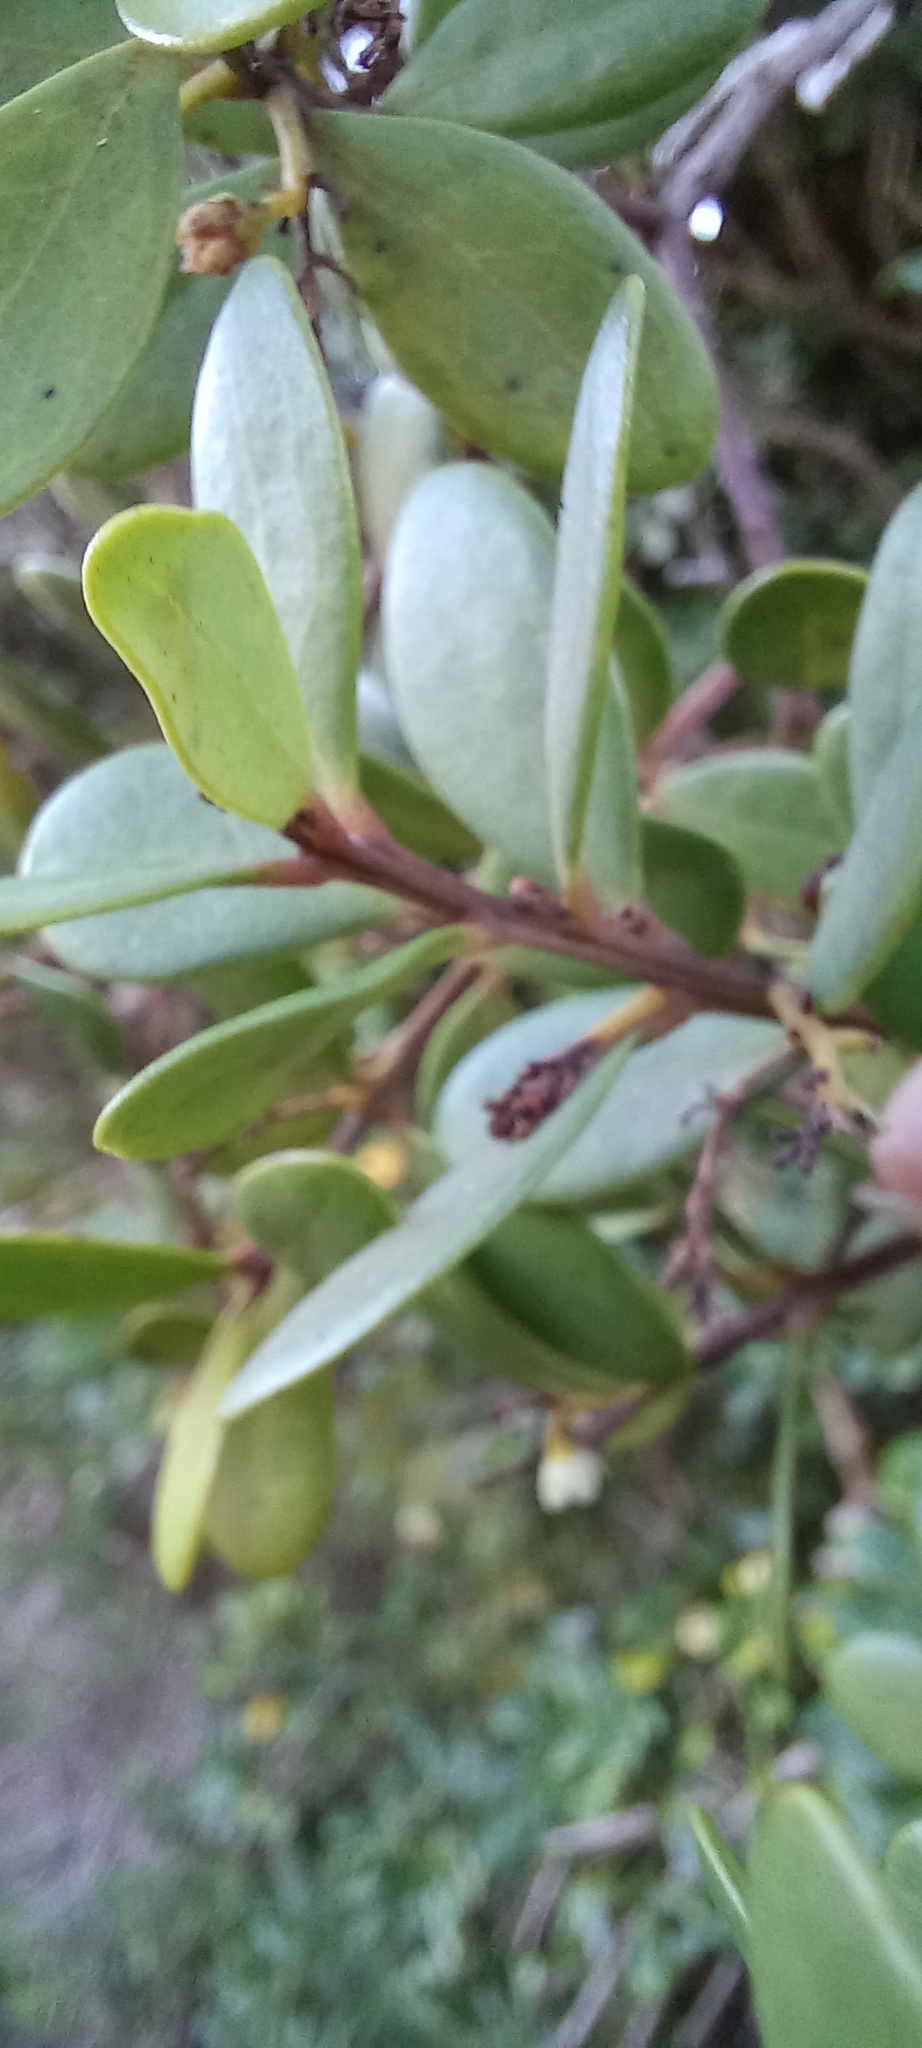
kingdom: Plantae
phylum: Tracheophyta
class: Magnoliopsida
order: Ericales
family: Ebenaceae
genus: Euclea
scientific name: Euclea racemosa
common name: Dune guarri
